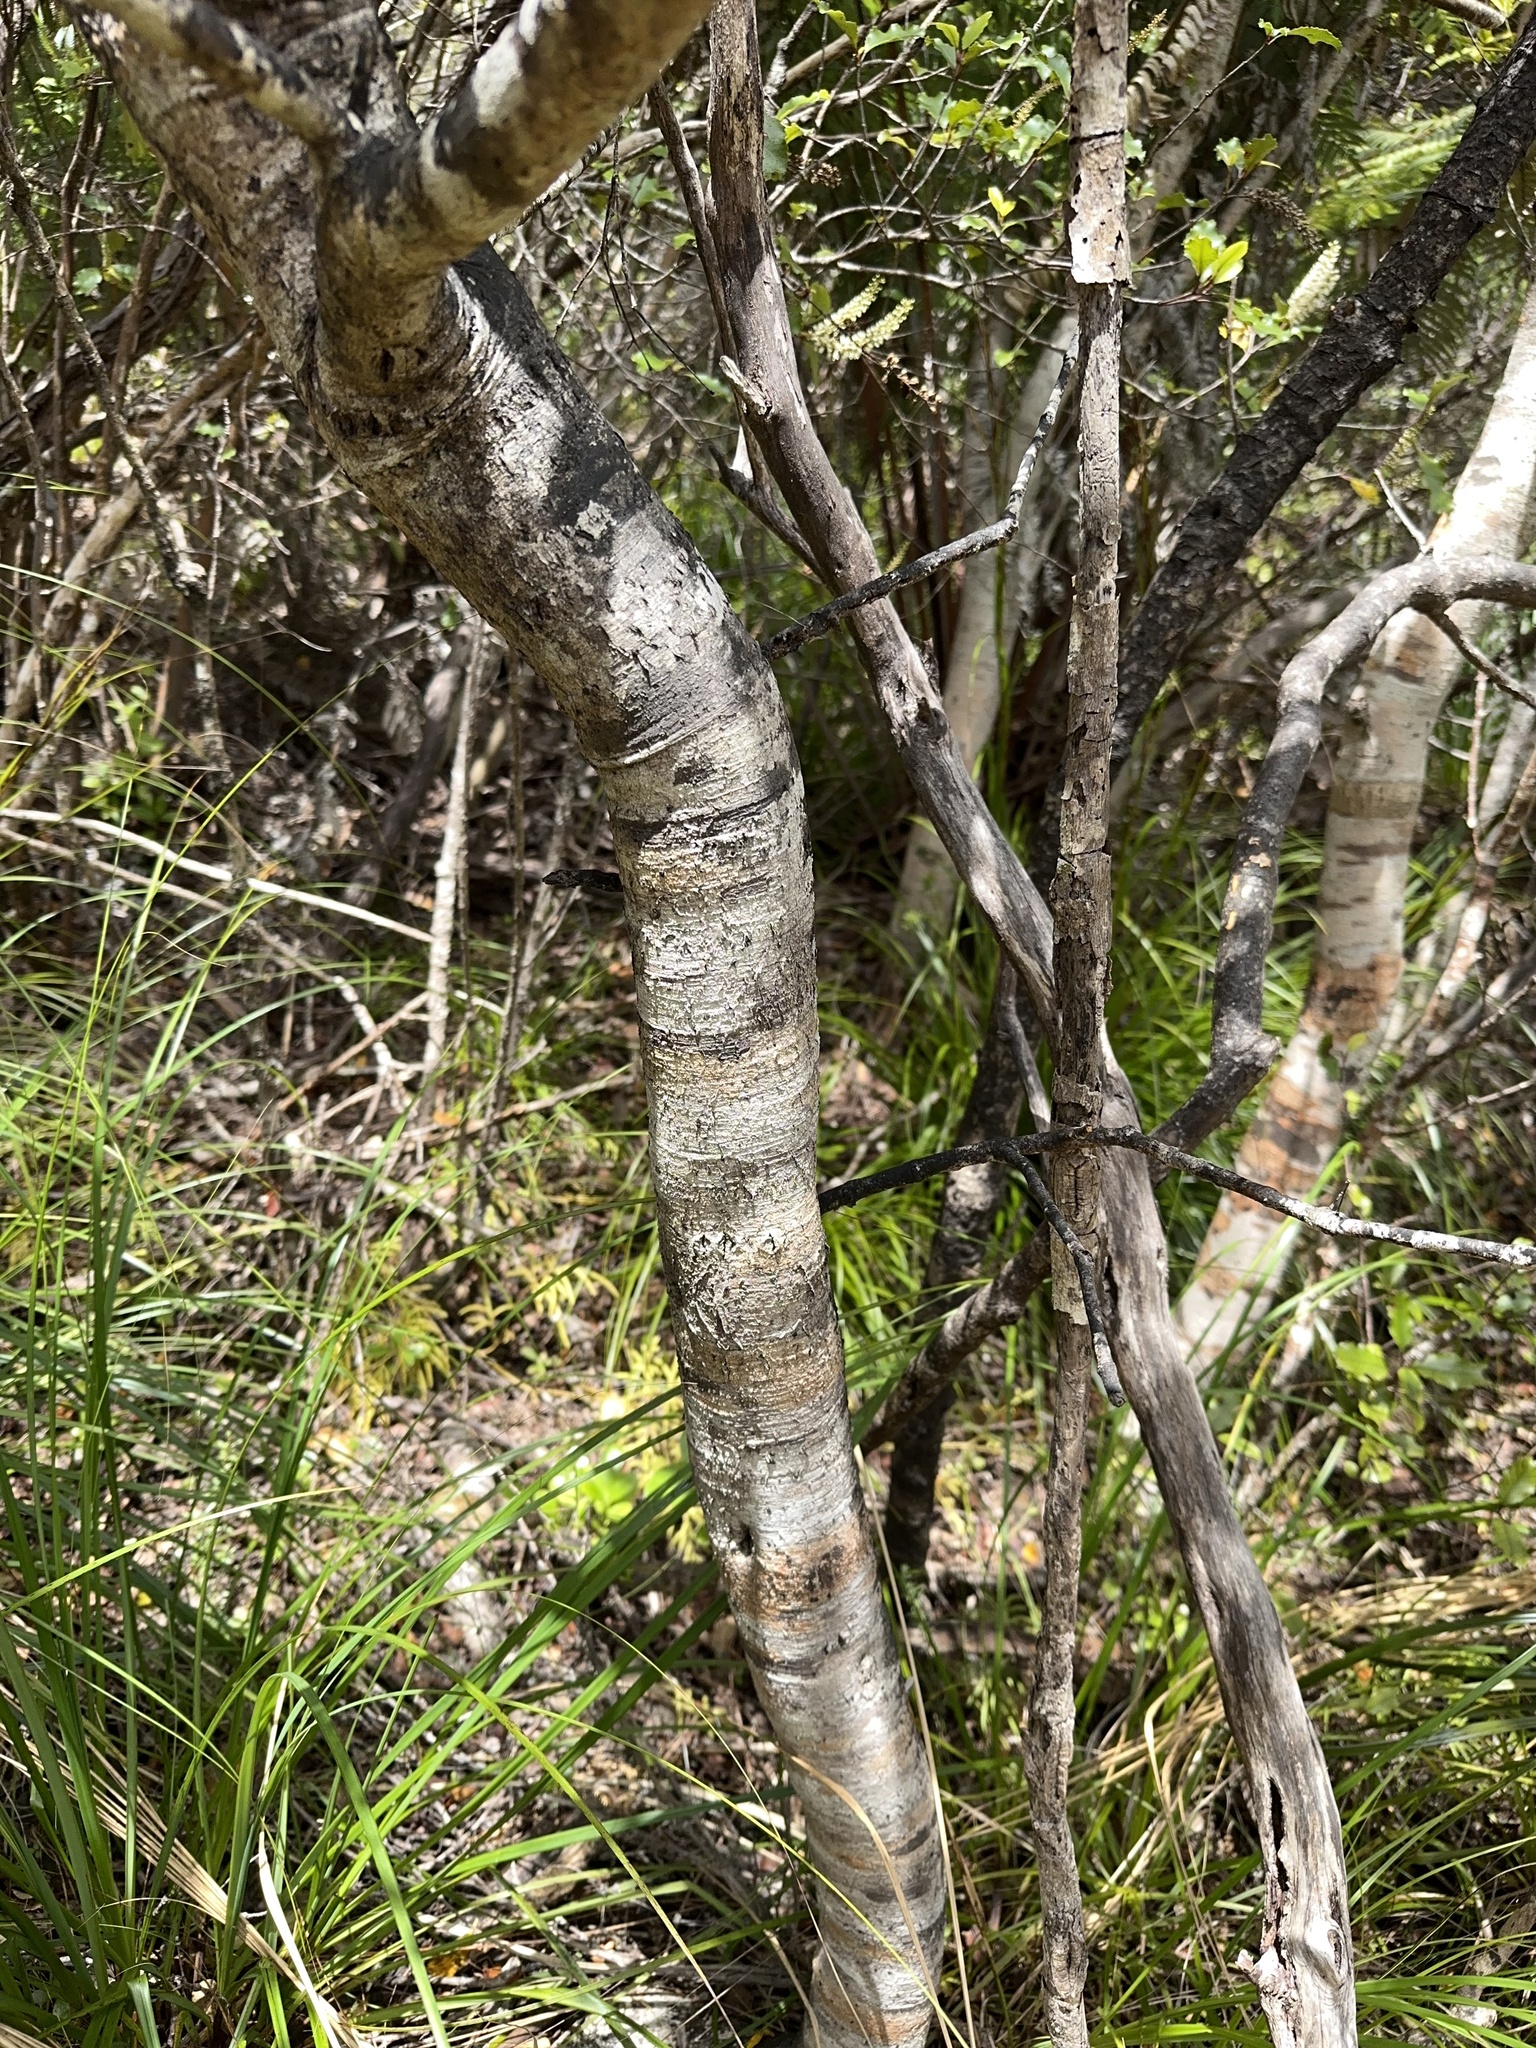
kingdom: Plantae
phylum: Tracheophyta
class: Magnoliopsida
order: Oxalidales
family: Cunoniaceae
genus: Pterophylla
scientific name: Pterophylla racemosa
